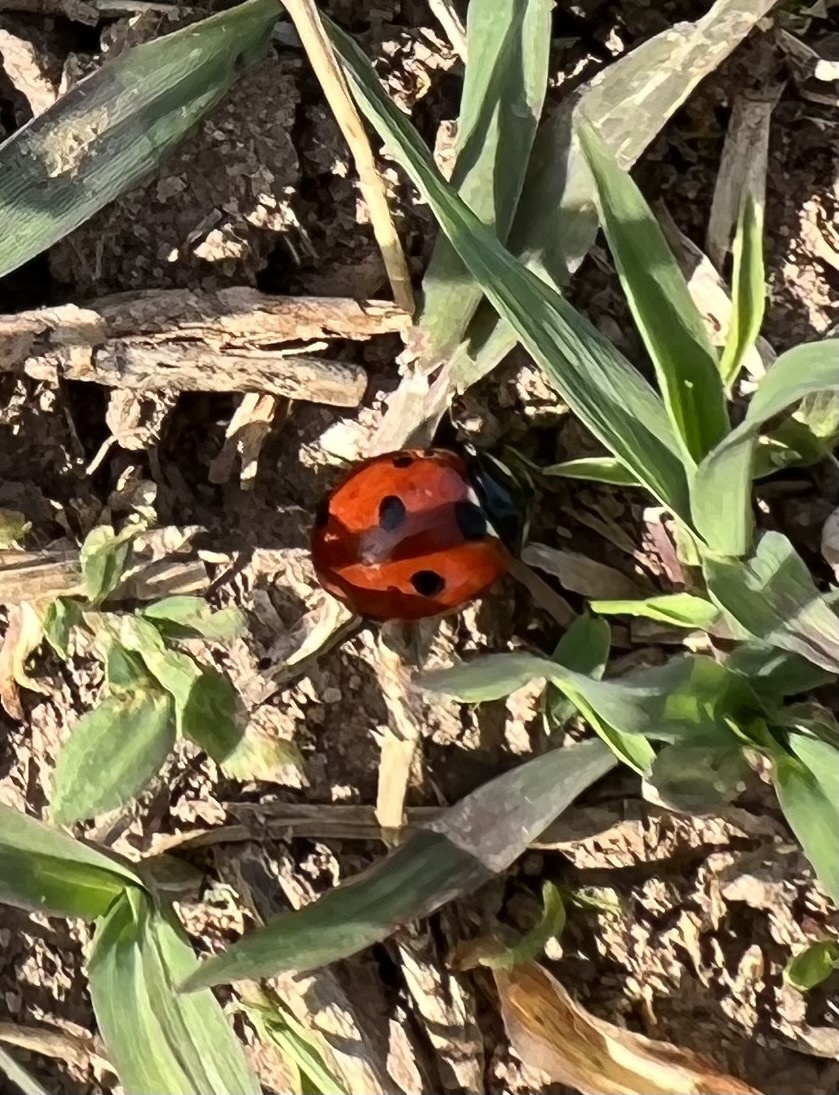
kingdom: Animalia
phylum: Arthropoda
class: Insecta
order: Coleoptera
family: Coccinellidae
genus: Coccinella
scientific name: Coccinella septempunctata
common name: Sevenspotted lady beetle
